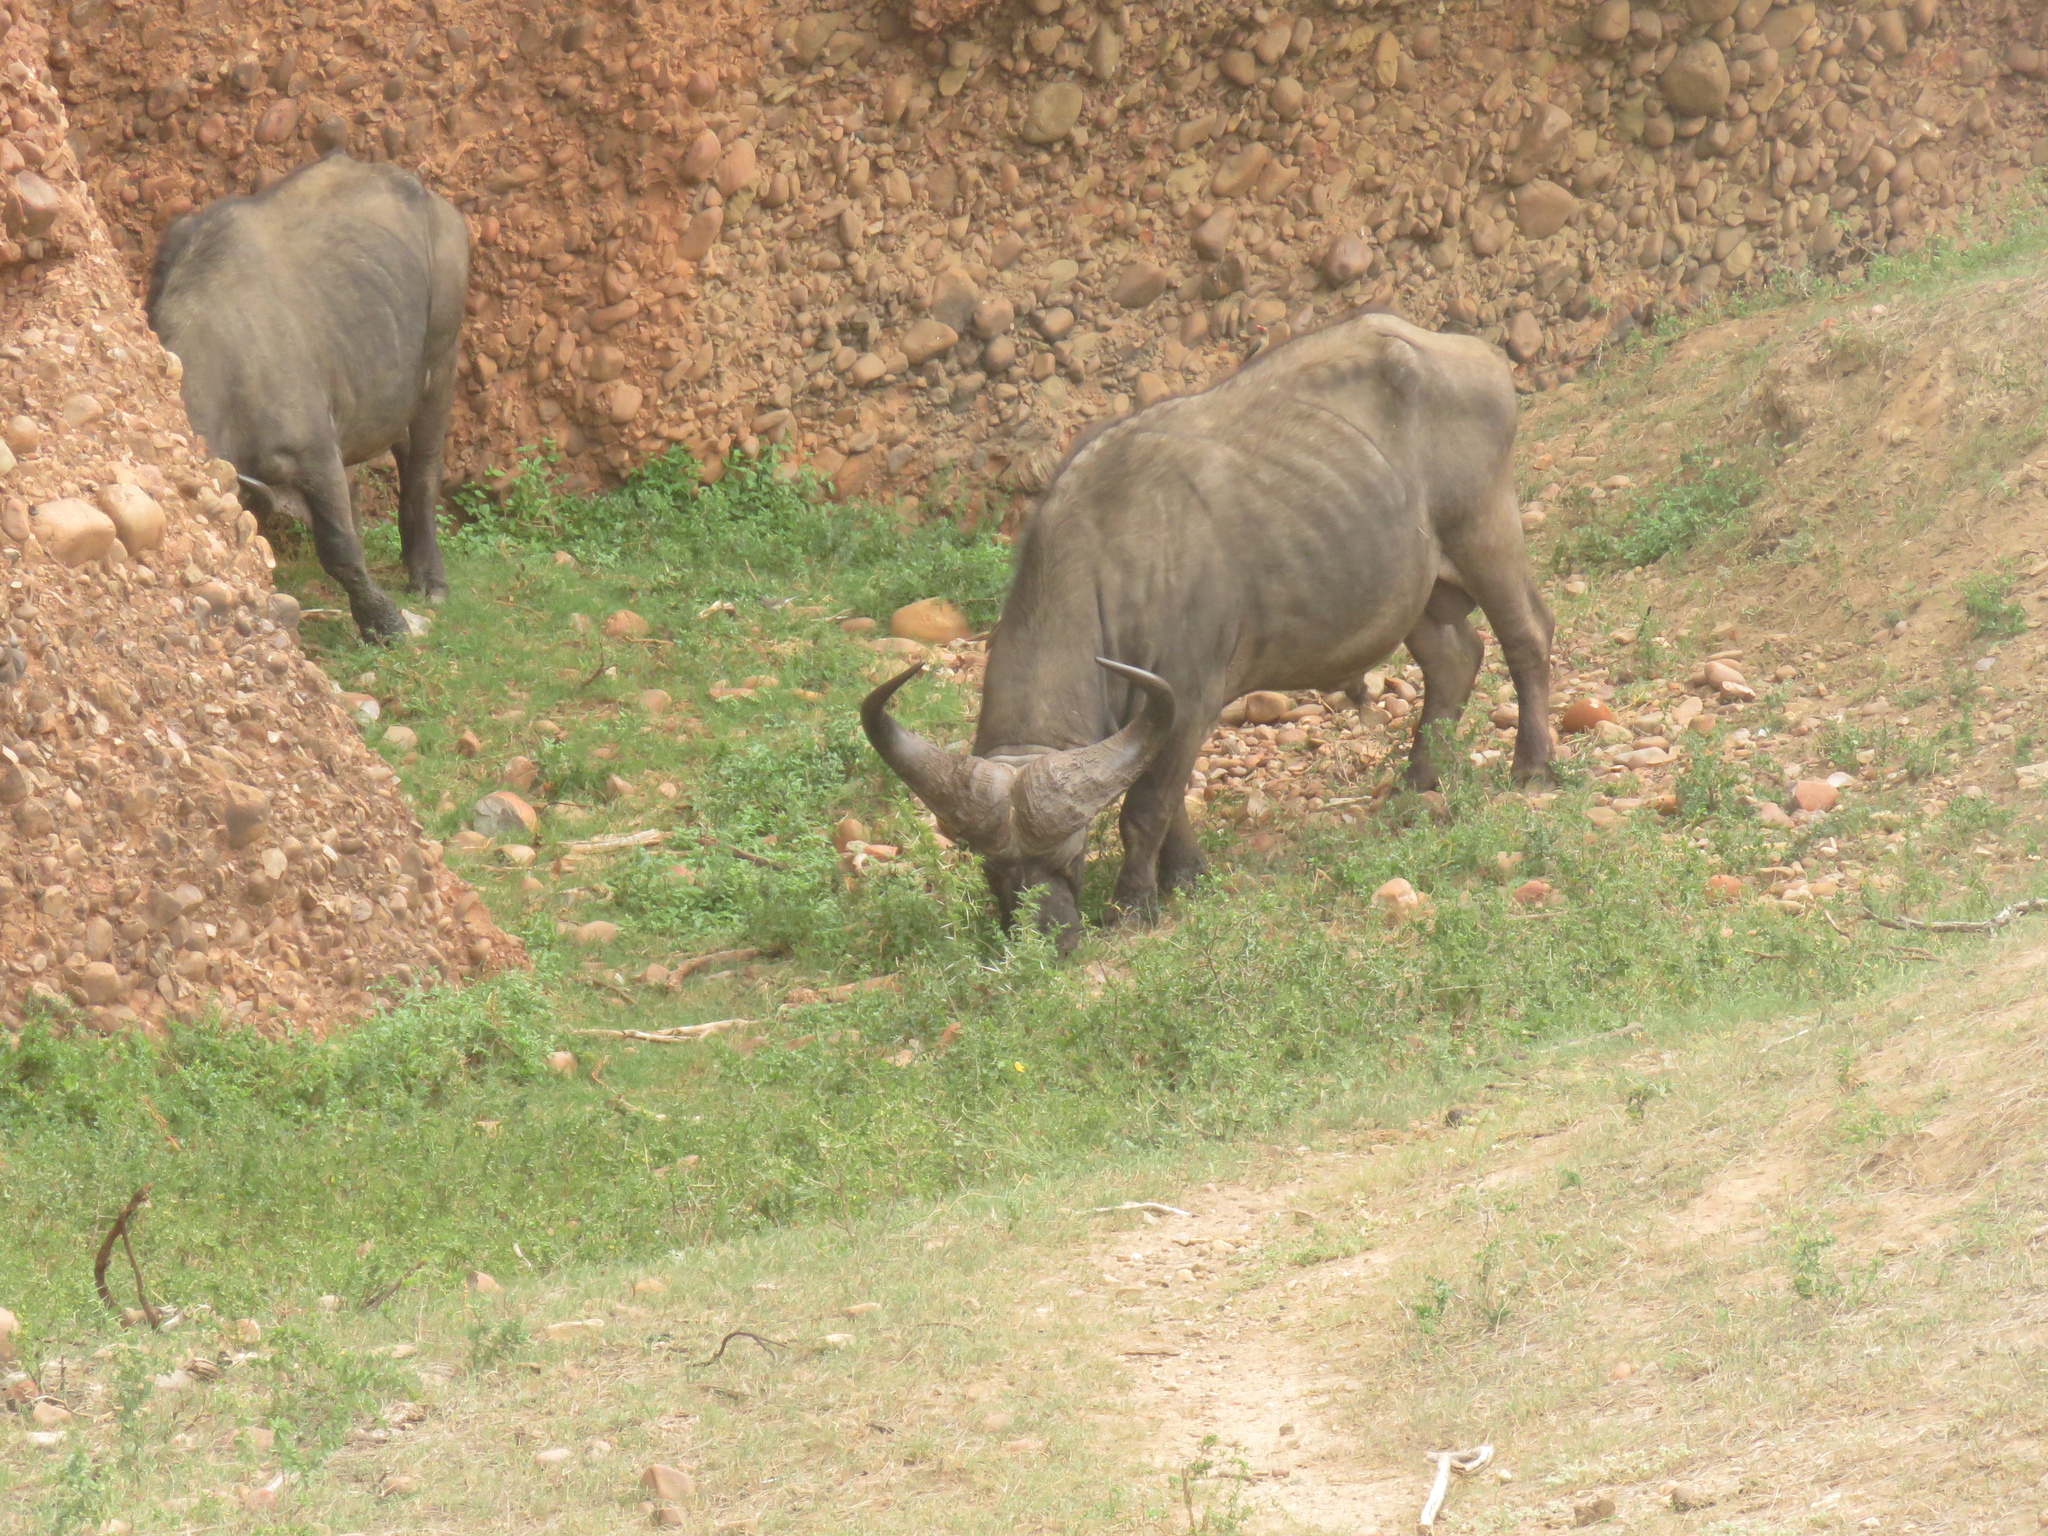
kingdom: Animalia
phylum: Chordata
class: Mammalia
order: Artiodactyla
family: Bovidae
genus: Syncerus
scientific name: Syncerus caffer
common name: African buffalo
